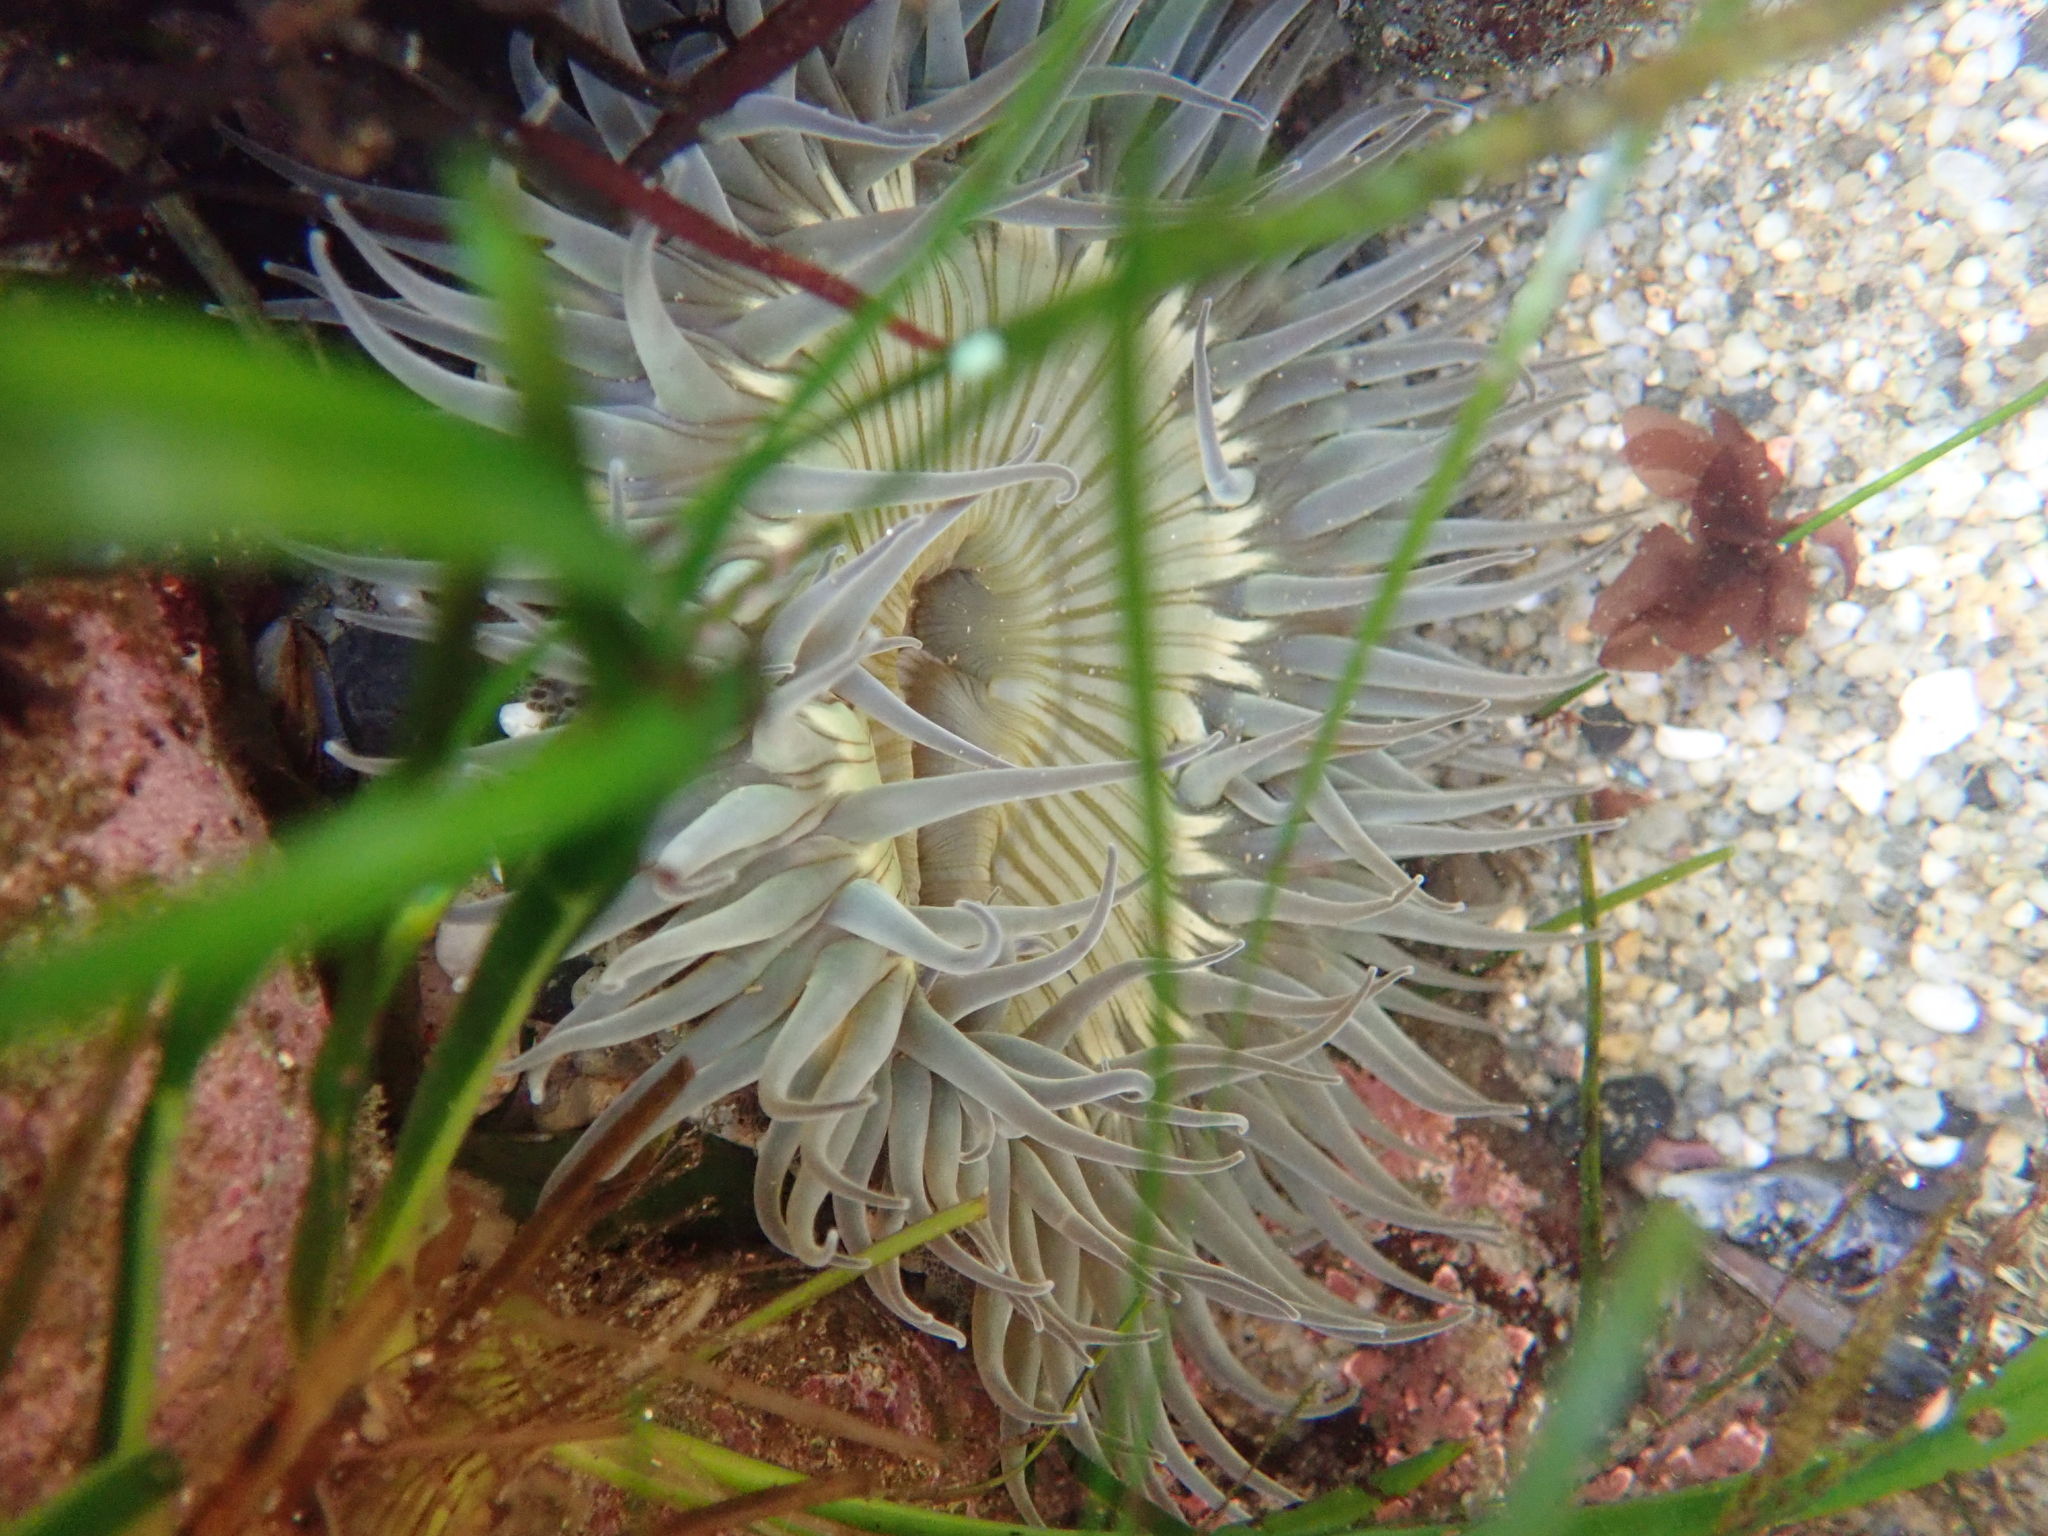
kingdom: Animalia
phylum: Cnidaria
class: Anthozoa
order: Actiniaria
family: Actiniidae
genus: Anthopleura
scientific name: Anthopleura sola
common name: Sun anemone
